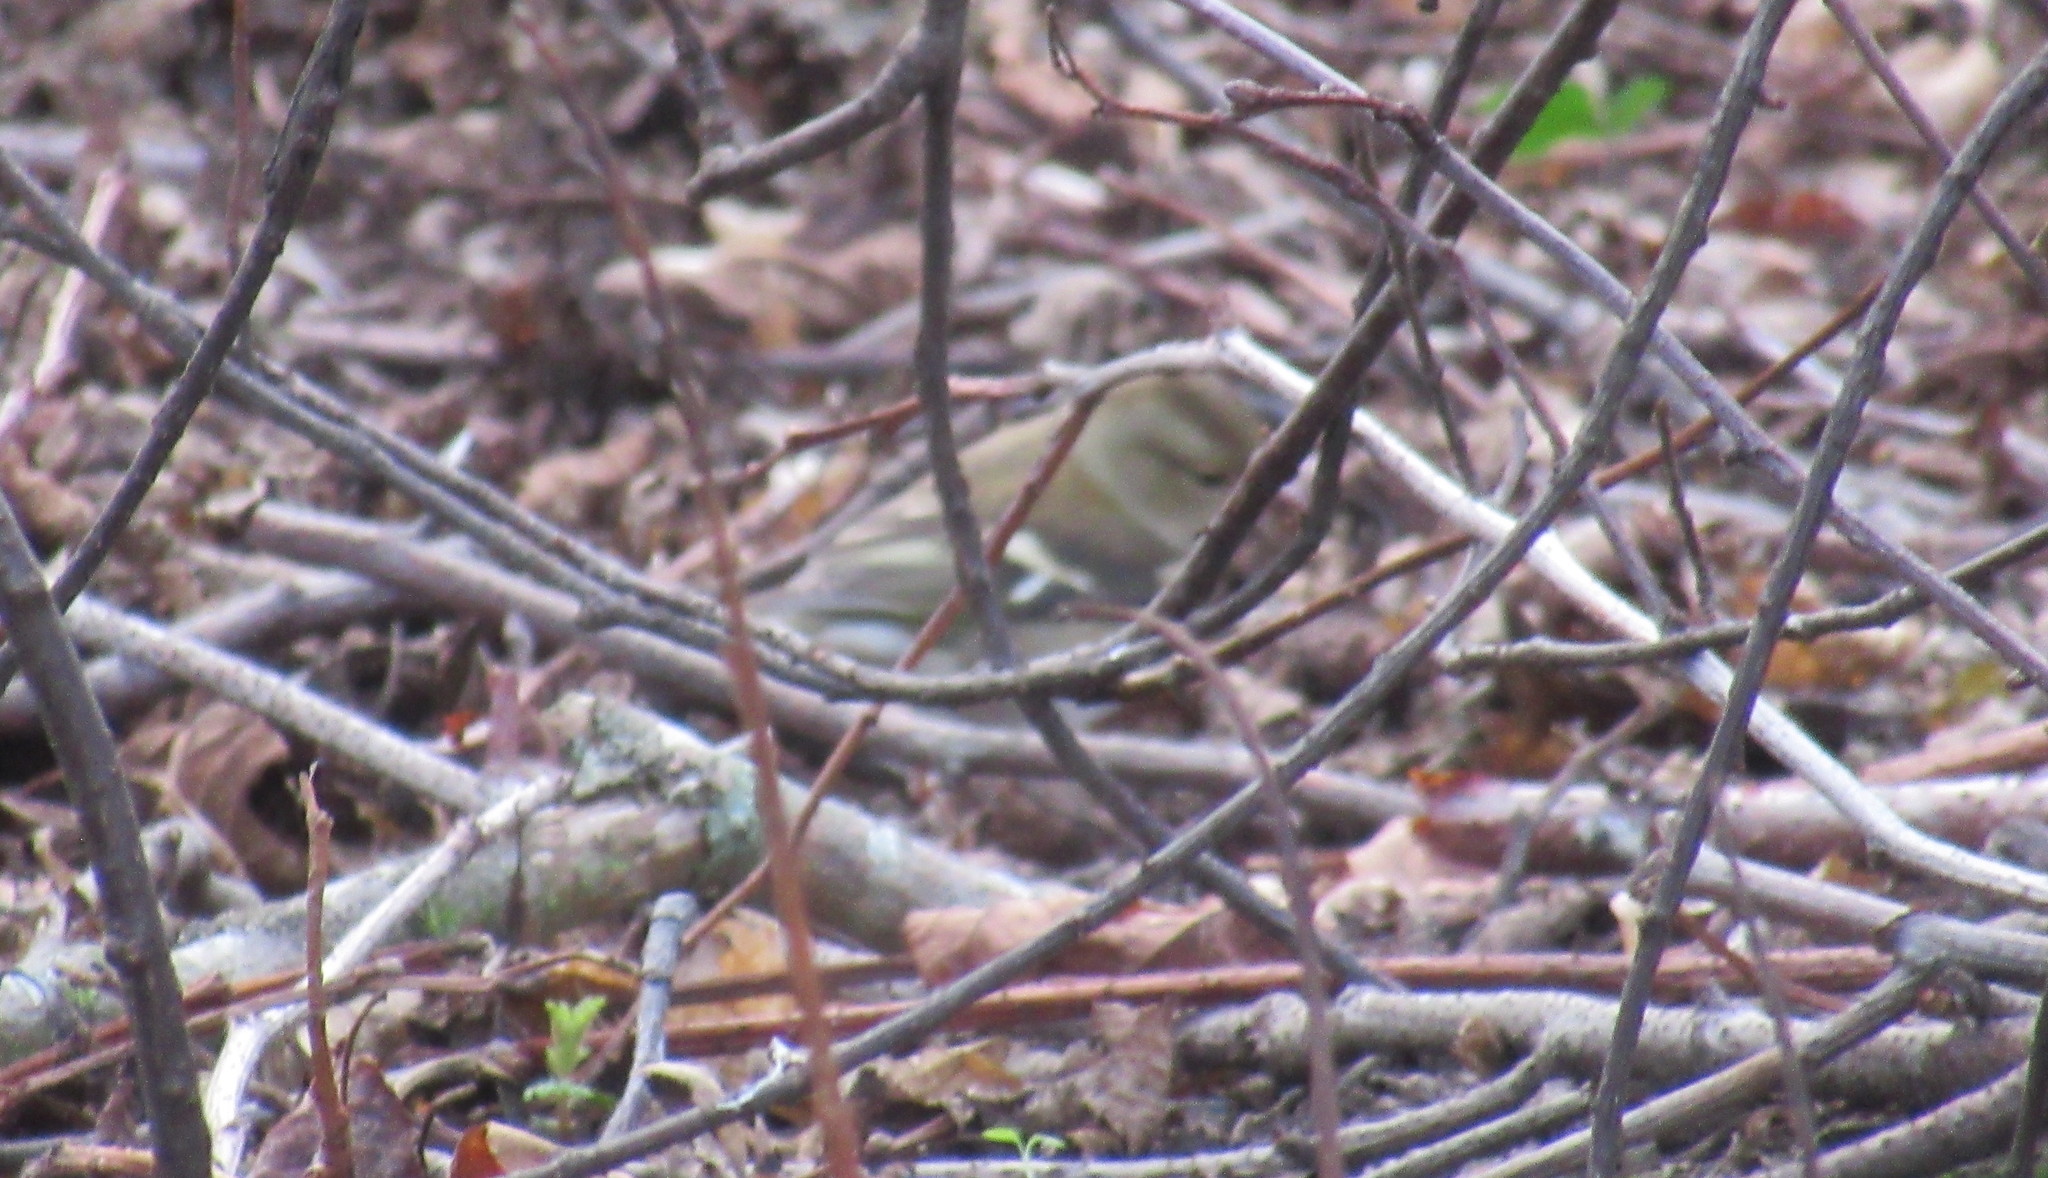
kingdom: Animalia
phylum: Chordata
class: Aves
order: Passeriformes
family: Fringillidae
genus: Fringilla
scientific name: Fringilla coelebs
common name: Common chaffinch
